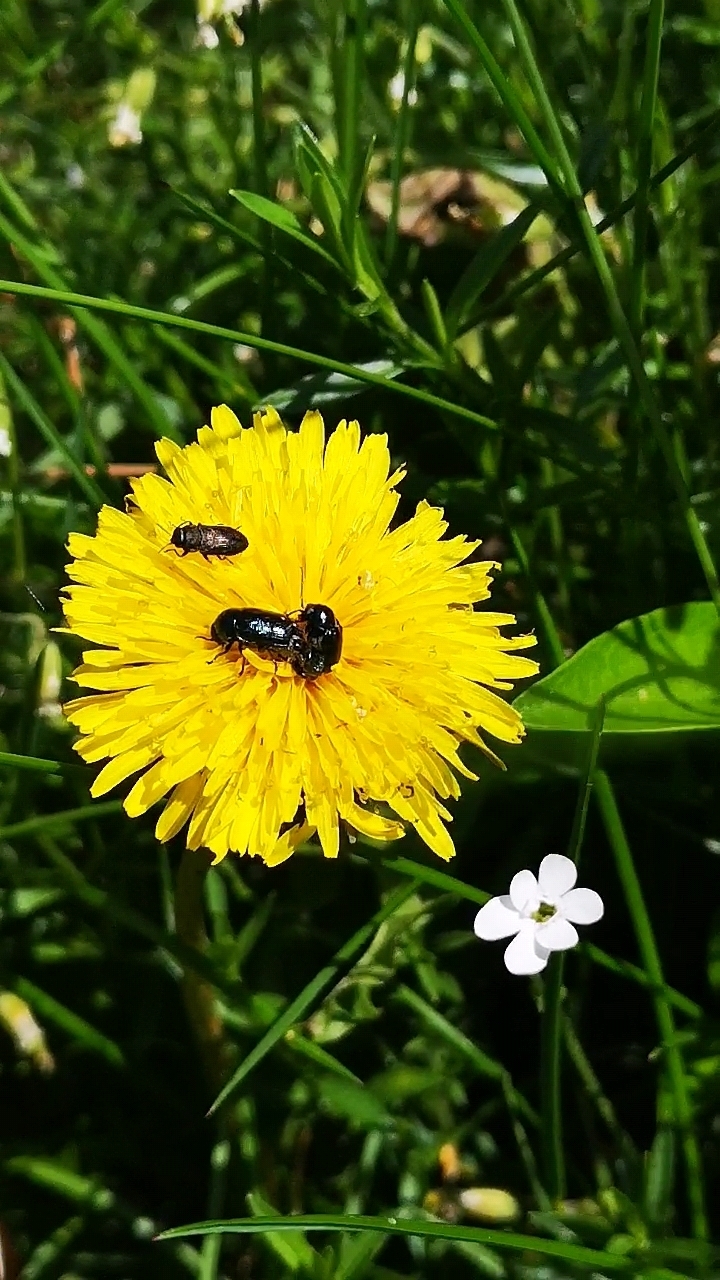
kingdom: Animalia
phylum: Arthropoda
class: Insecta
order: Coleoptera
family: Chrysomelidae
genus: Cryptocephalus
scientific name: Cryptocephalus violaceus
